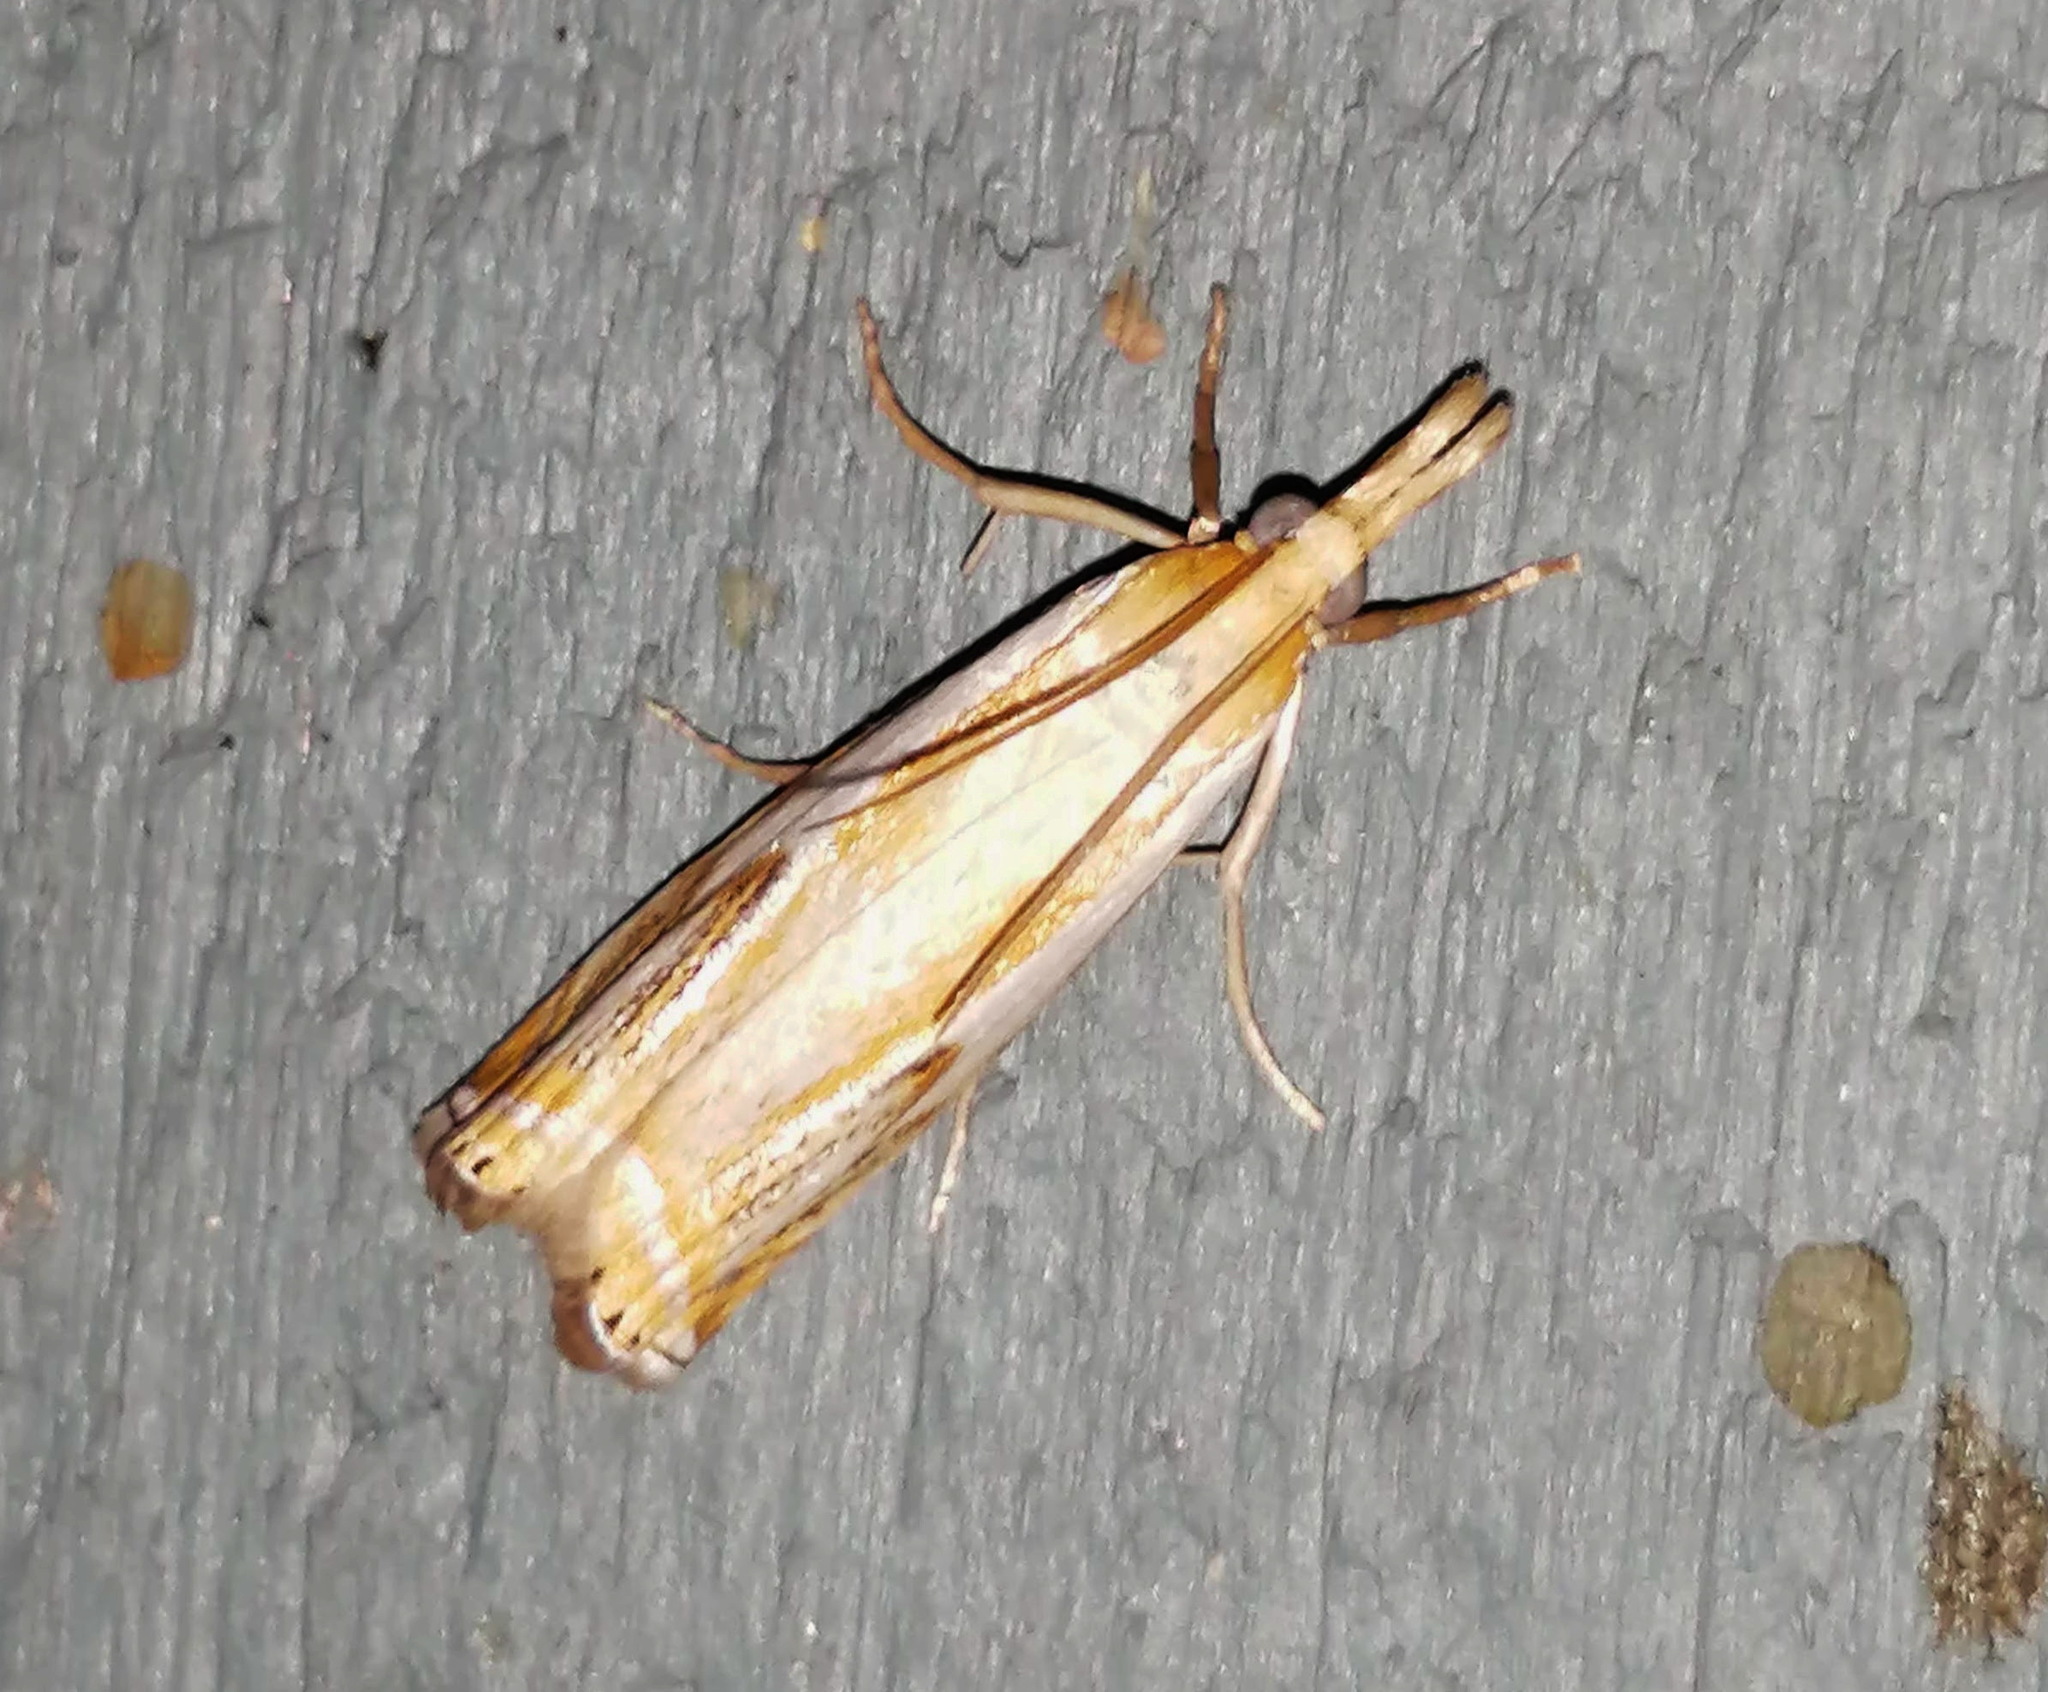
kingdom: Animalia
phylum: Arthropoda
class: Insecta
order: Lepidoptera
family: Crambidae
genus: Crambus
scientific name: Crambus agitatellus
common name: Double-banded grass-veneer
